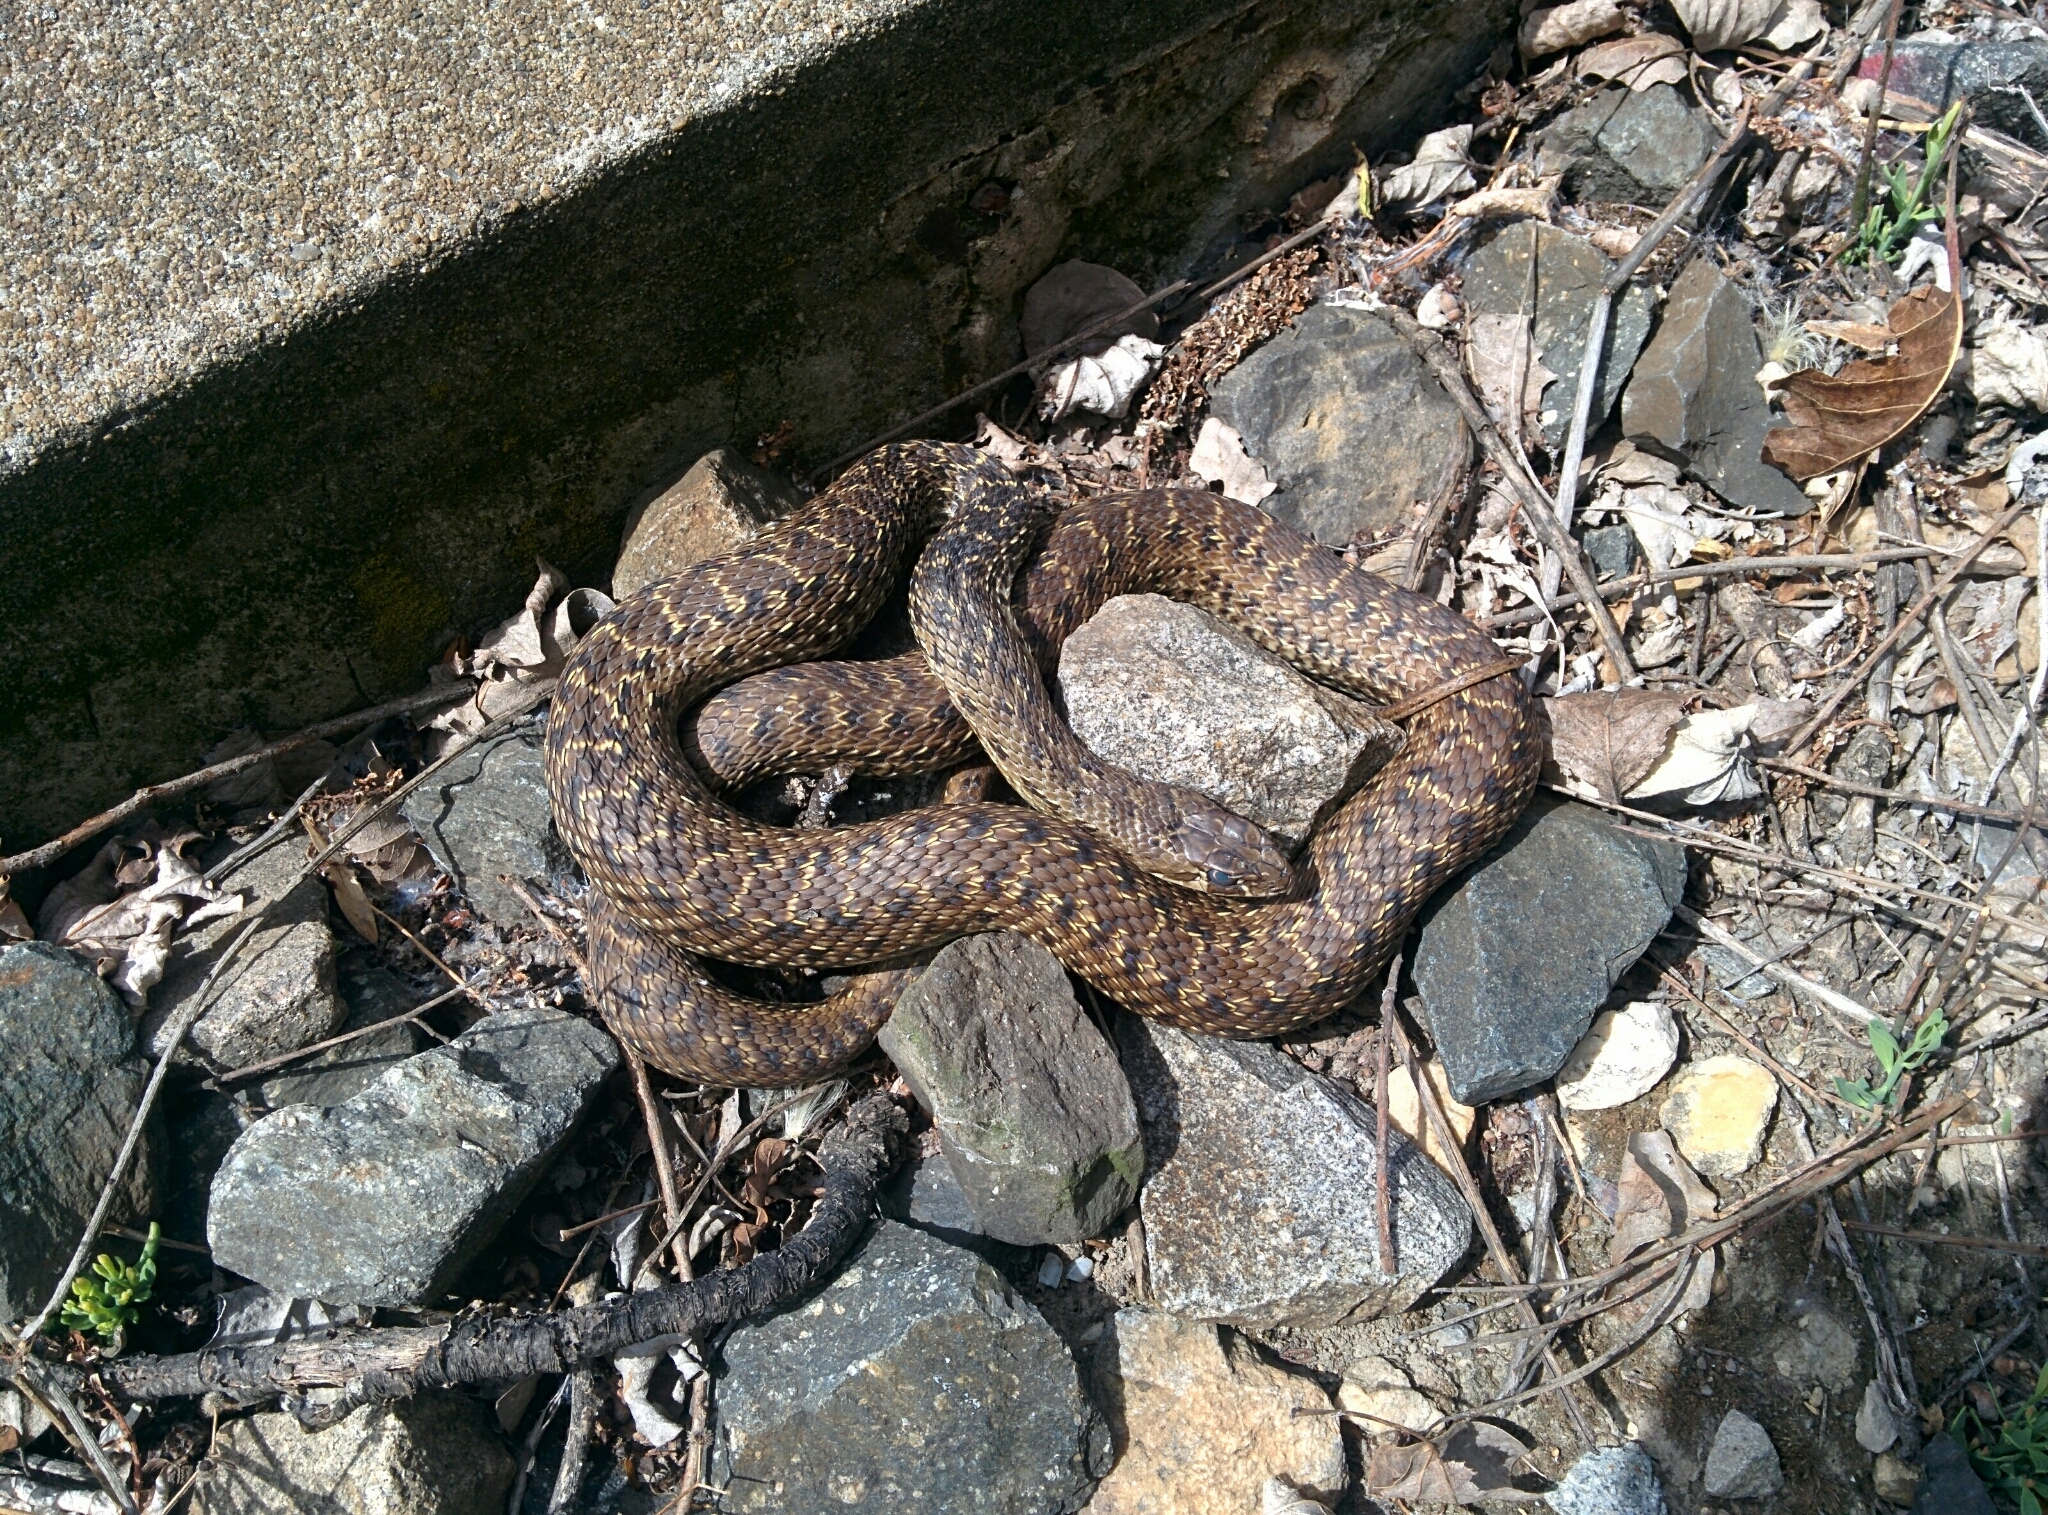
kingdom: Animalia
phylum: Chordata
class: Squamata
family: Psammophiidae
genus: Malpolon
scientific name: Malpolon monspessulanus
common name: Montpellier snake
